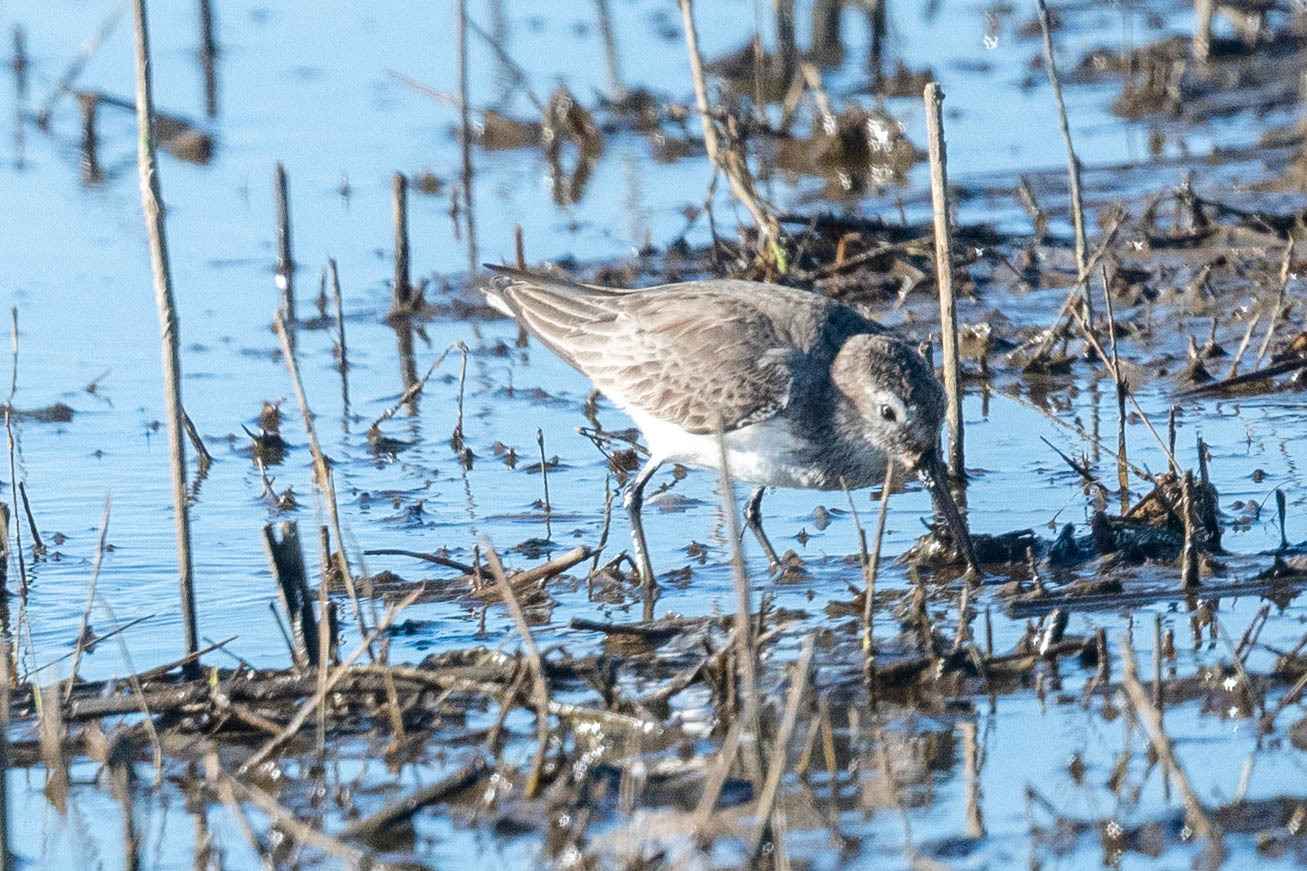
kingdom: Animalia
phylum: Chordata
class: Aves
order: Charadriiformes
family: Scolopacidae
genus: Calidris
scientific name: Calidris alpina
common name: Dunlin
